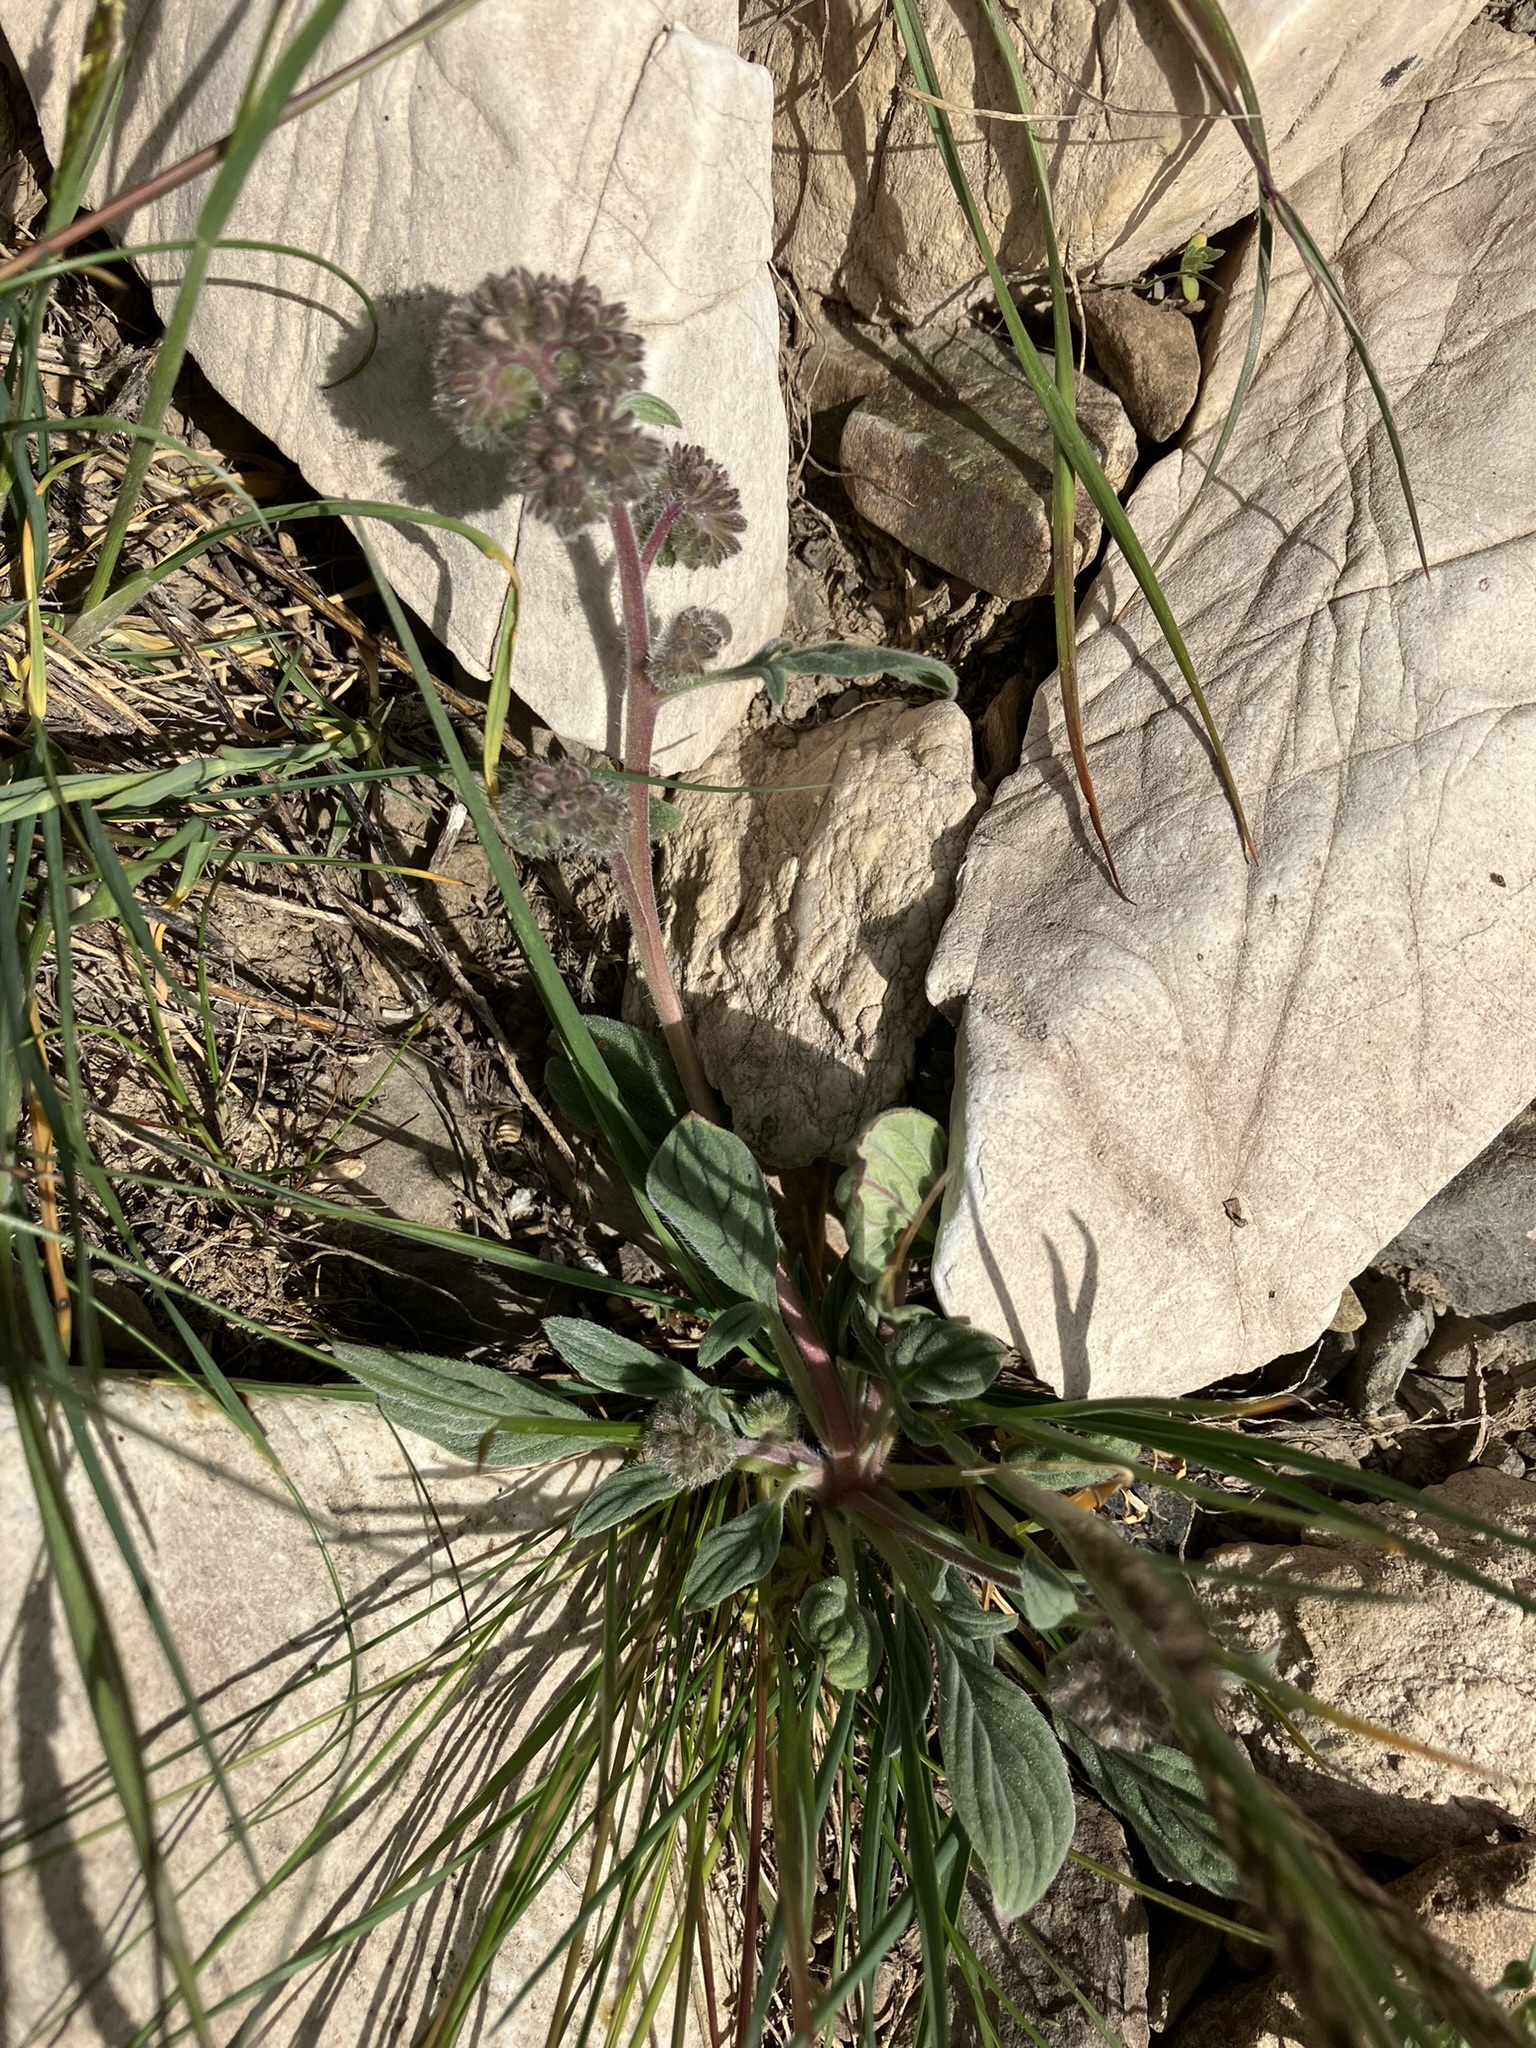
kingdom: Plantae
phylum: Tracheophyta
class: Magnoliopsida
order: Boraginales
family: Hydrophyllaceae
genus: Phacelia
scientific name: Phacelia hastata
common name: Silver-leaved phacelia
